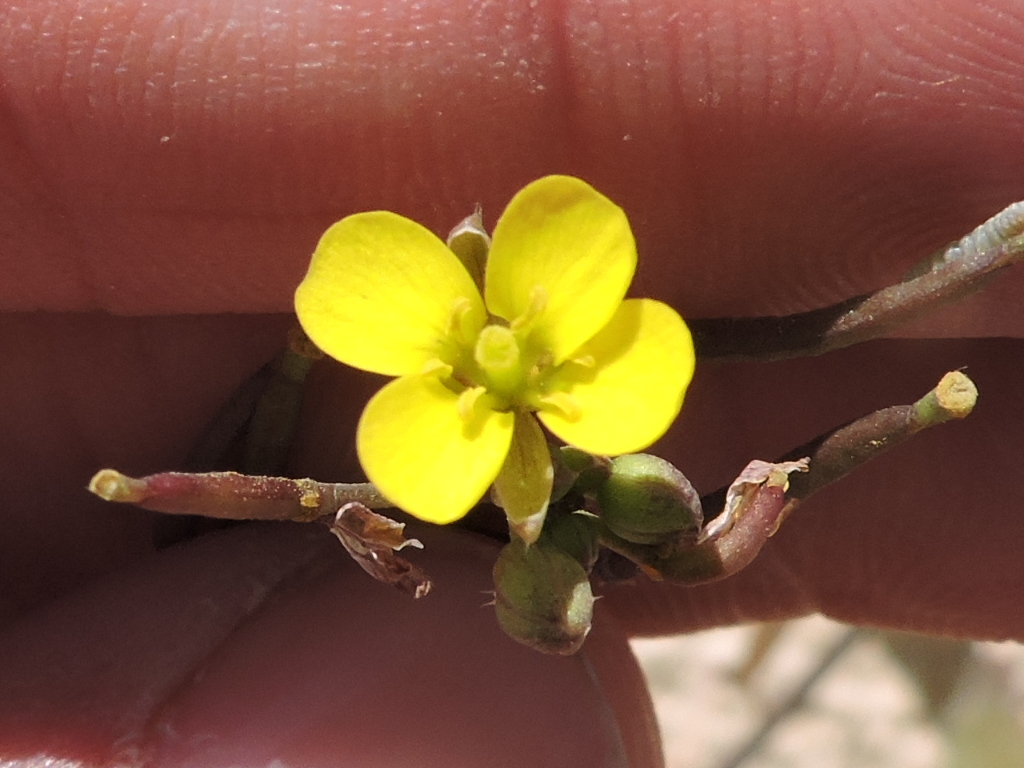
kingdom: Plantae
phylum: Tracheophyta
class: Magnoliopsida
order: Brassicales
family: Brassicaceae
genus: Diplotaxis
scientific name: Diplotaxis muralis
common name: Annual wall-rocket
